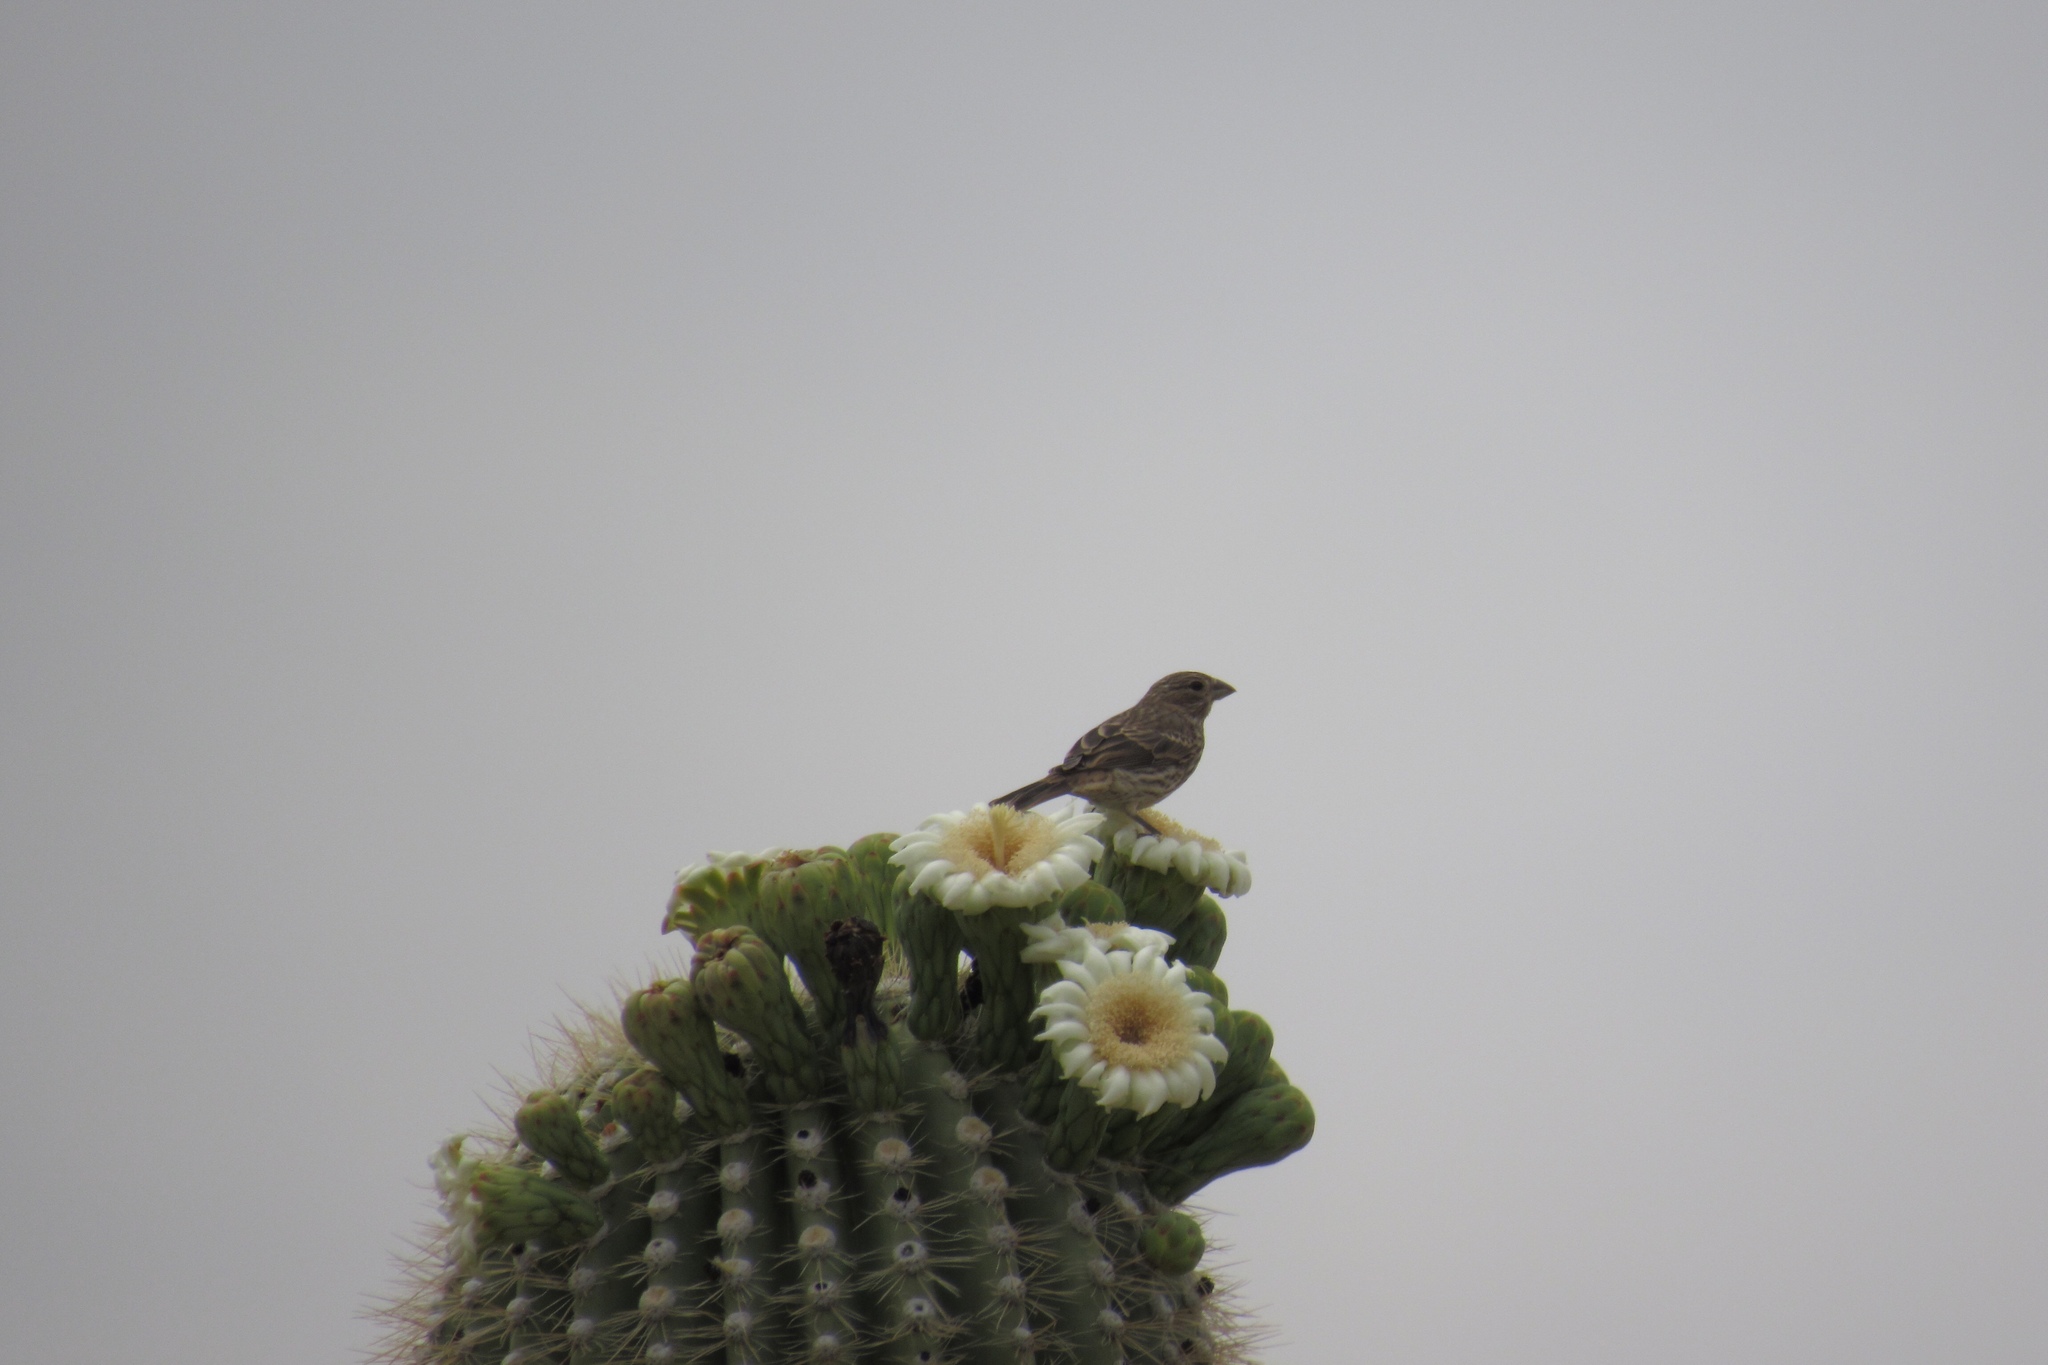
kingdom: Animalia
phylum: Chordata
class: Aves
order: Passeriformes
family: Fringillidae
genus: Haemorhous
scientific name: Haemorhous mexicanus
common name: House finch
